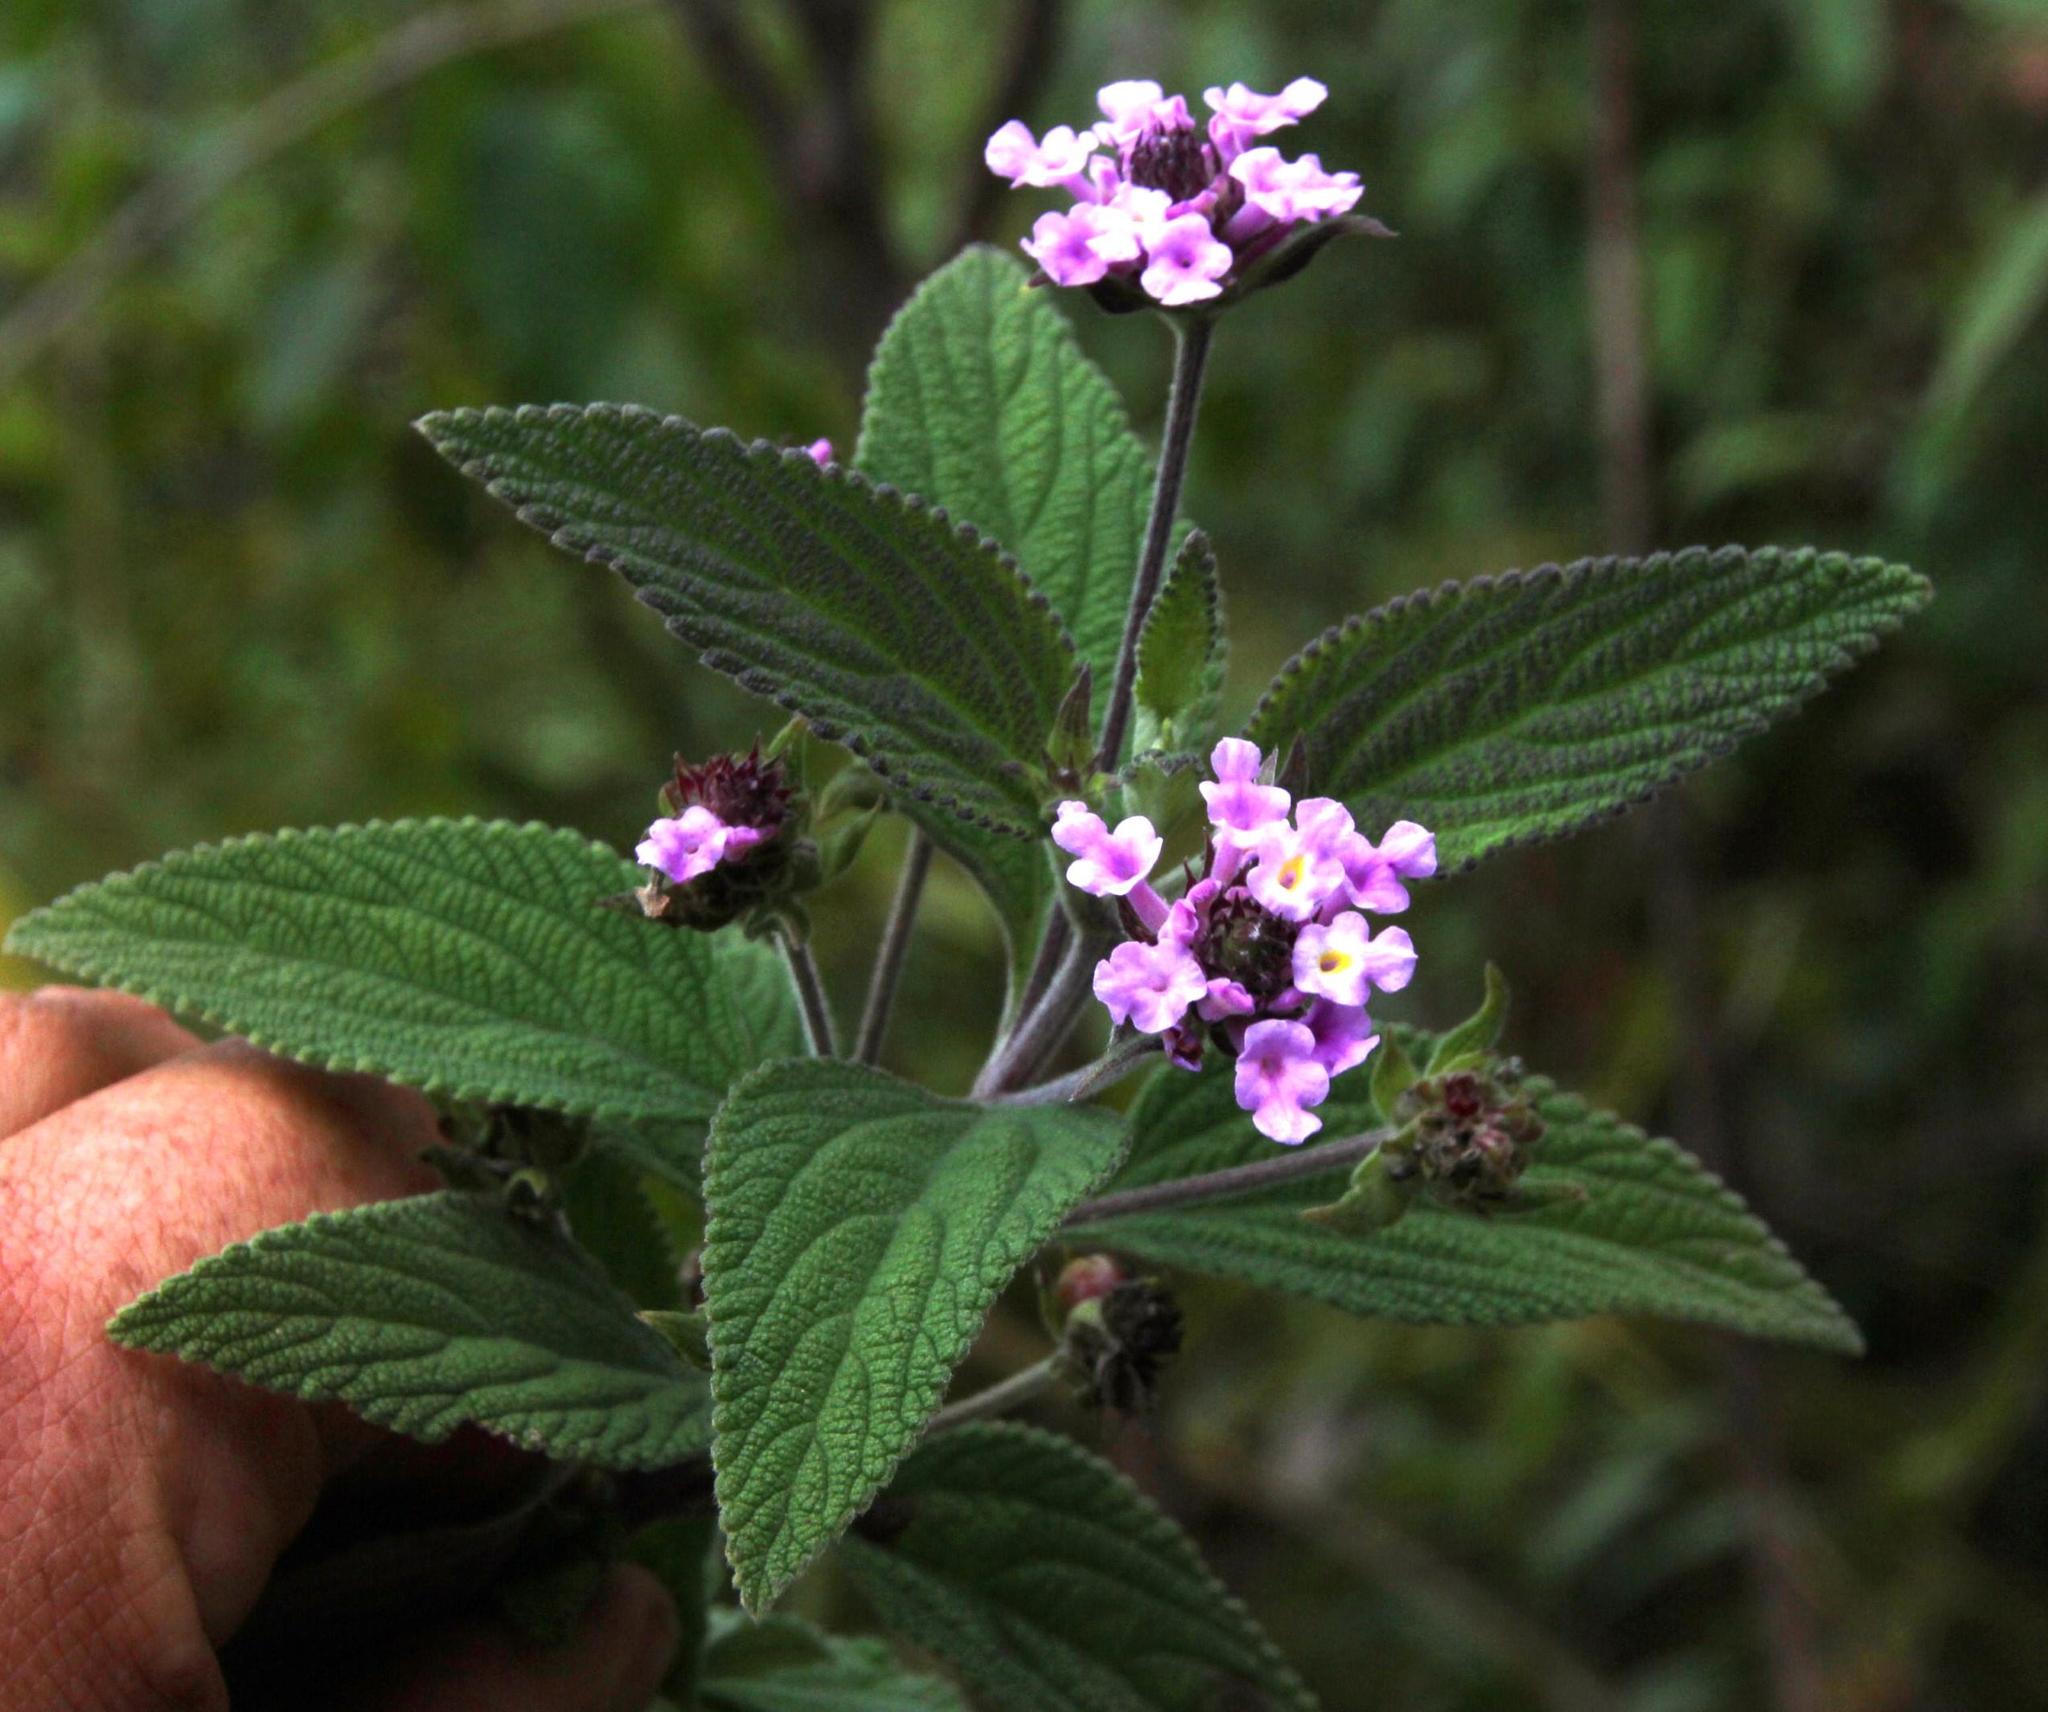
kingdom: Plantae
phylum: Tracheophyta
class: Magnoliopsida
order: Lamiales
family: Verbenaceae
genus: Lantana
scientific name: Lantana viscosa
